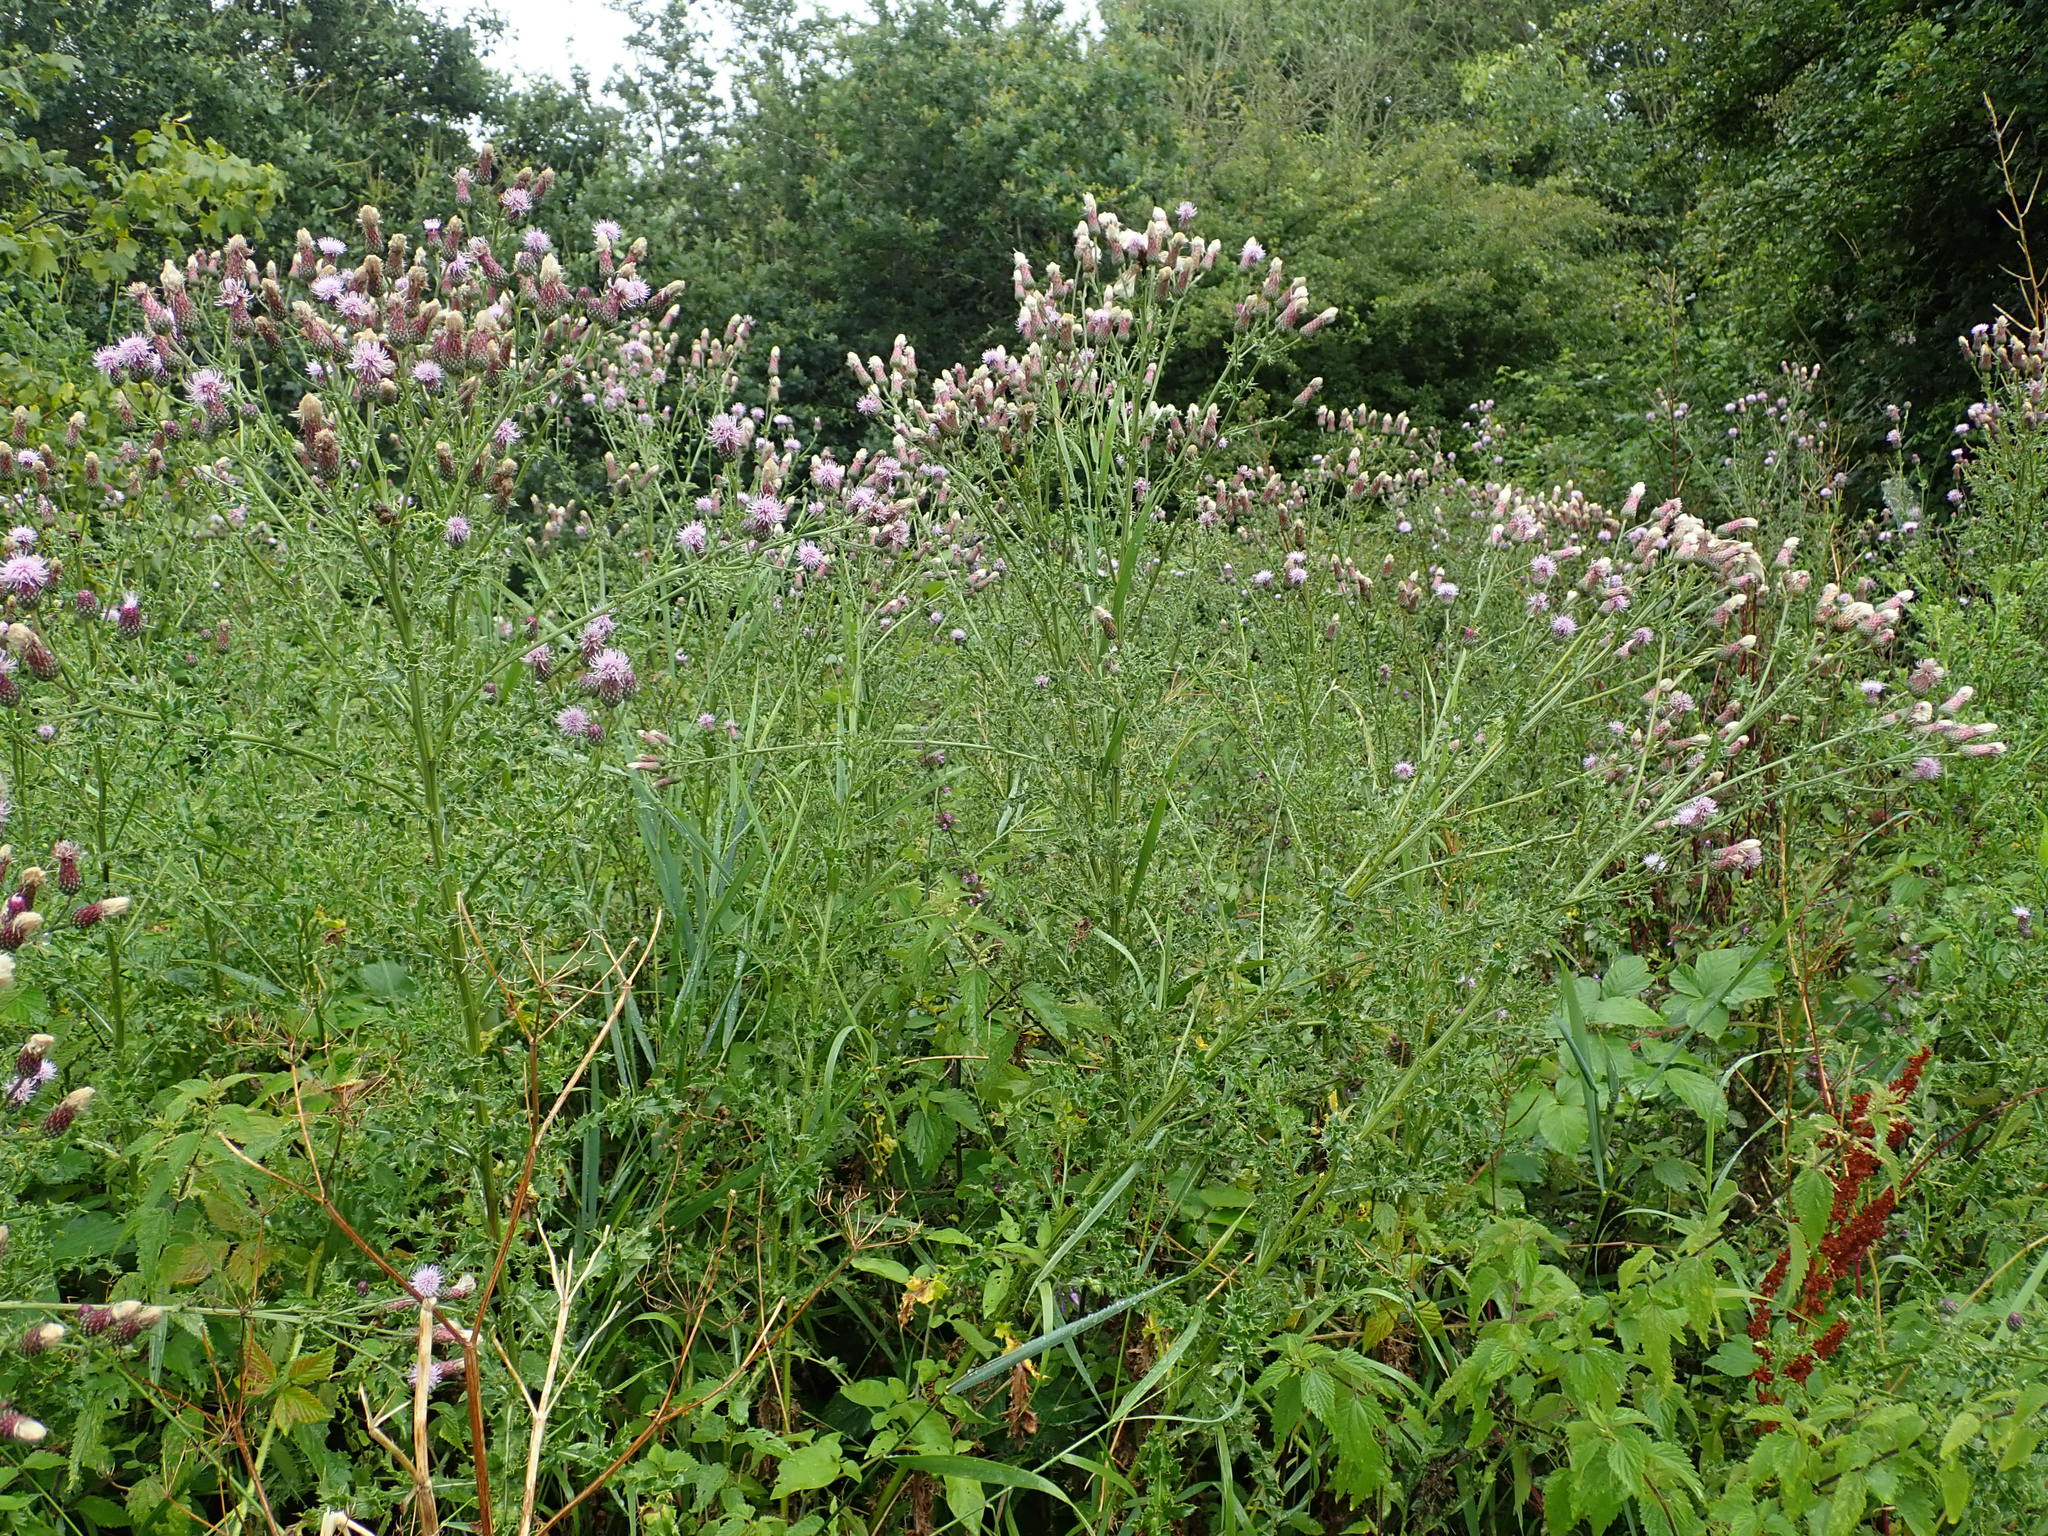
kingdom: Plantae
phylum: Tracheophyta
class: Magnoliopsida
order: Asterales
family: Asteraceae
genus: Cirsium
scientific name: Cirsium arvense
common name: Creeping thistle
